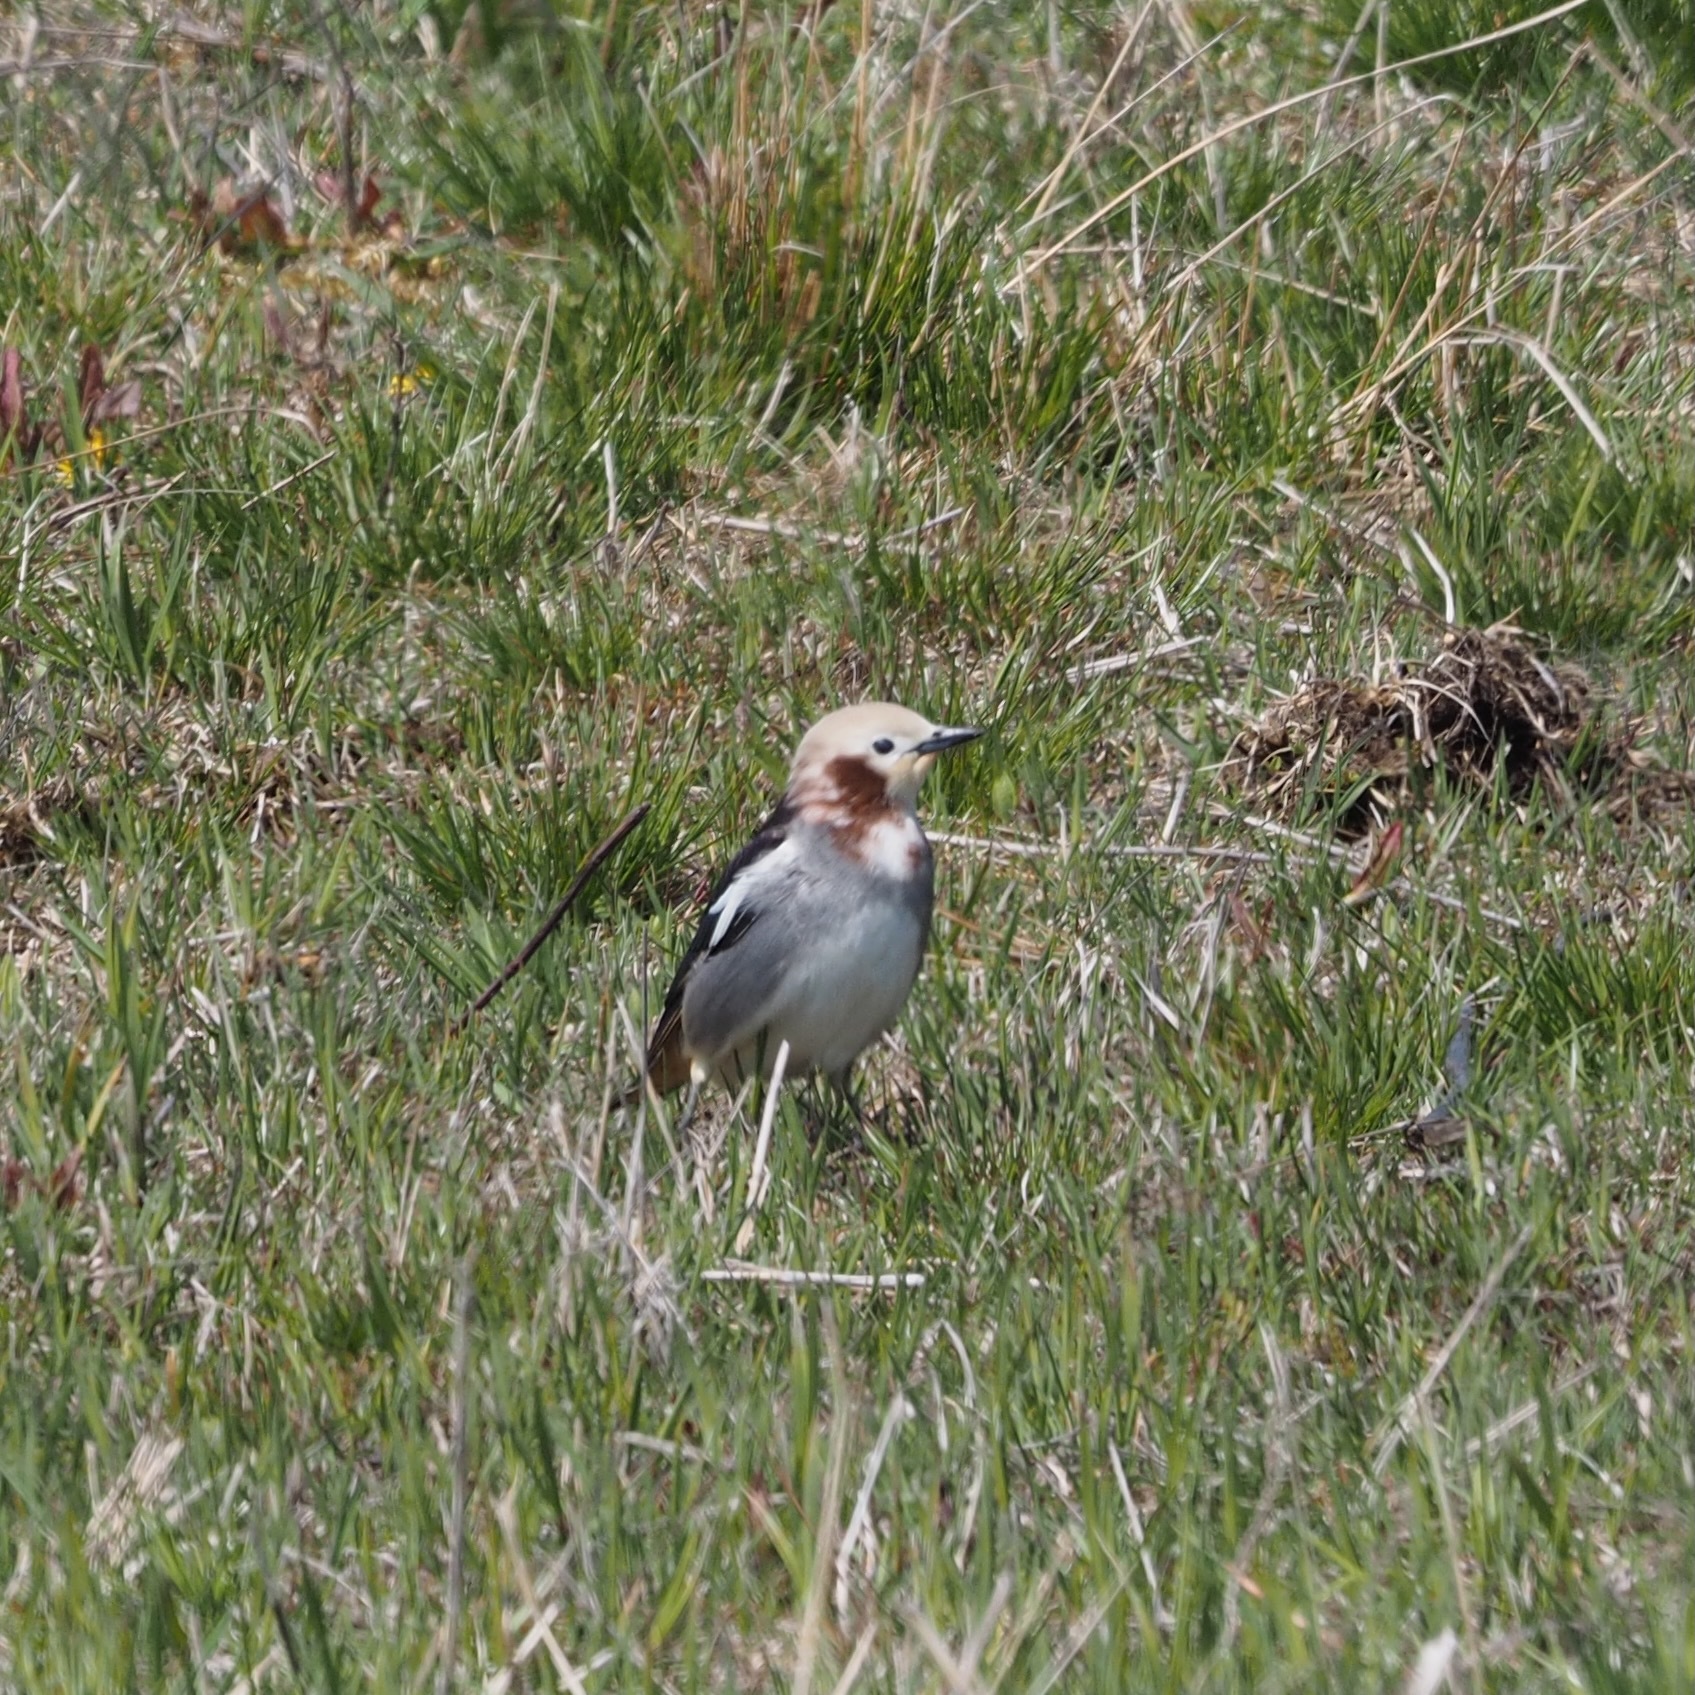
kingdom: Animalia
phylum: Chordata
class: Aves
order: Passeriformes
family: Sturnidae
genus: Agropsar
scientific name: Agropsar philippensis
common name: Chestnut-cheeked starling
